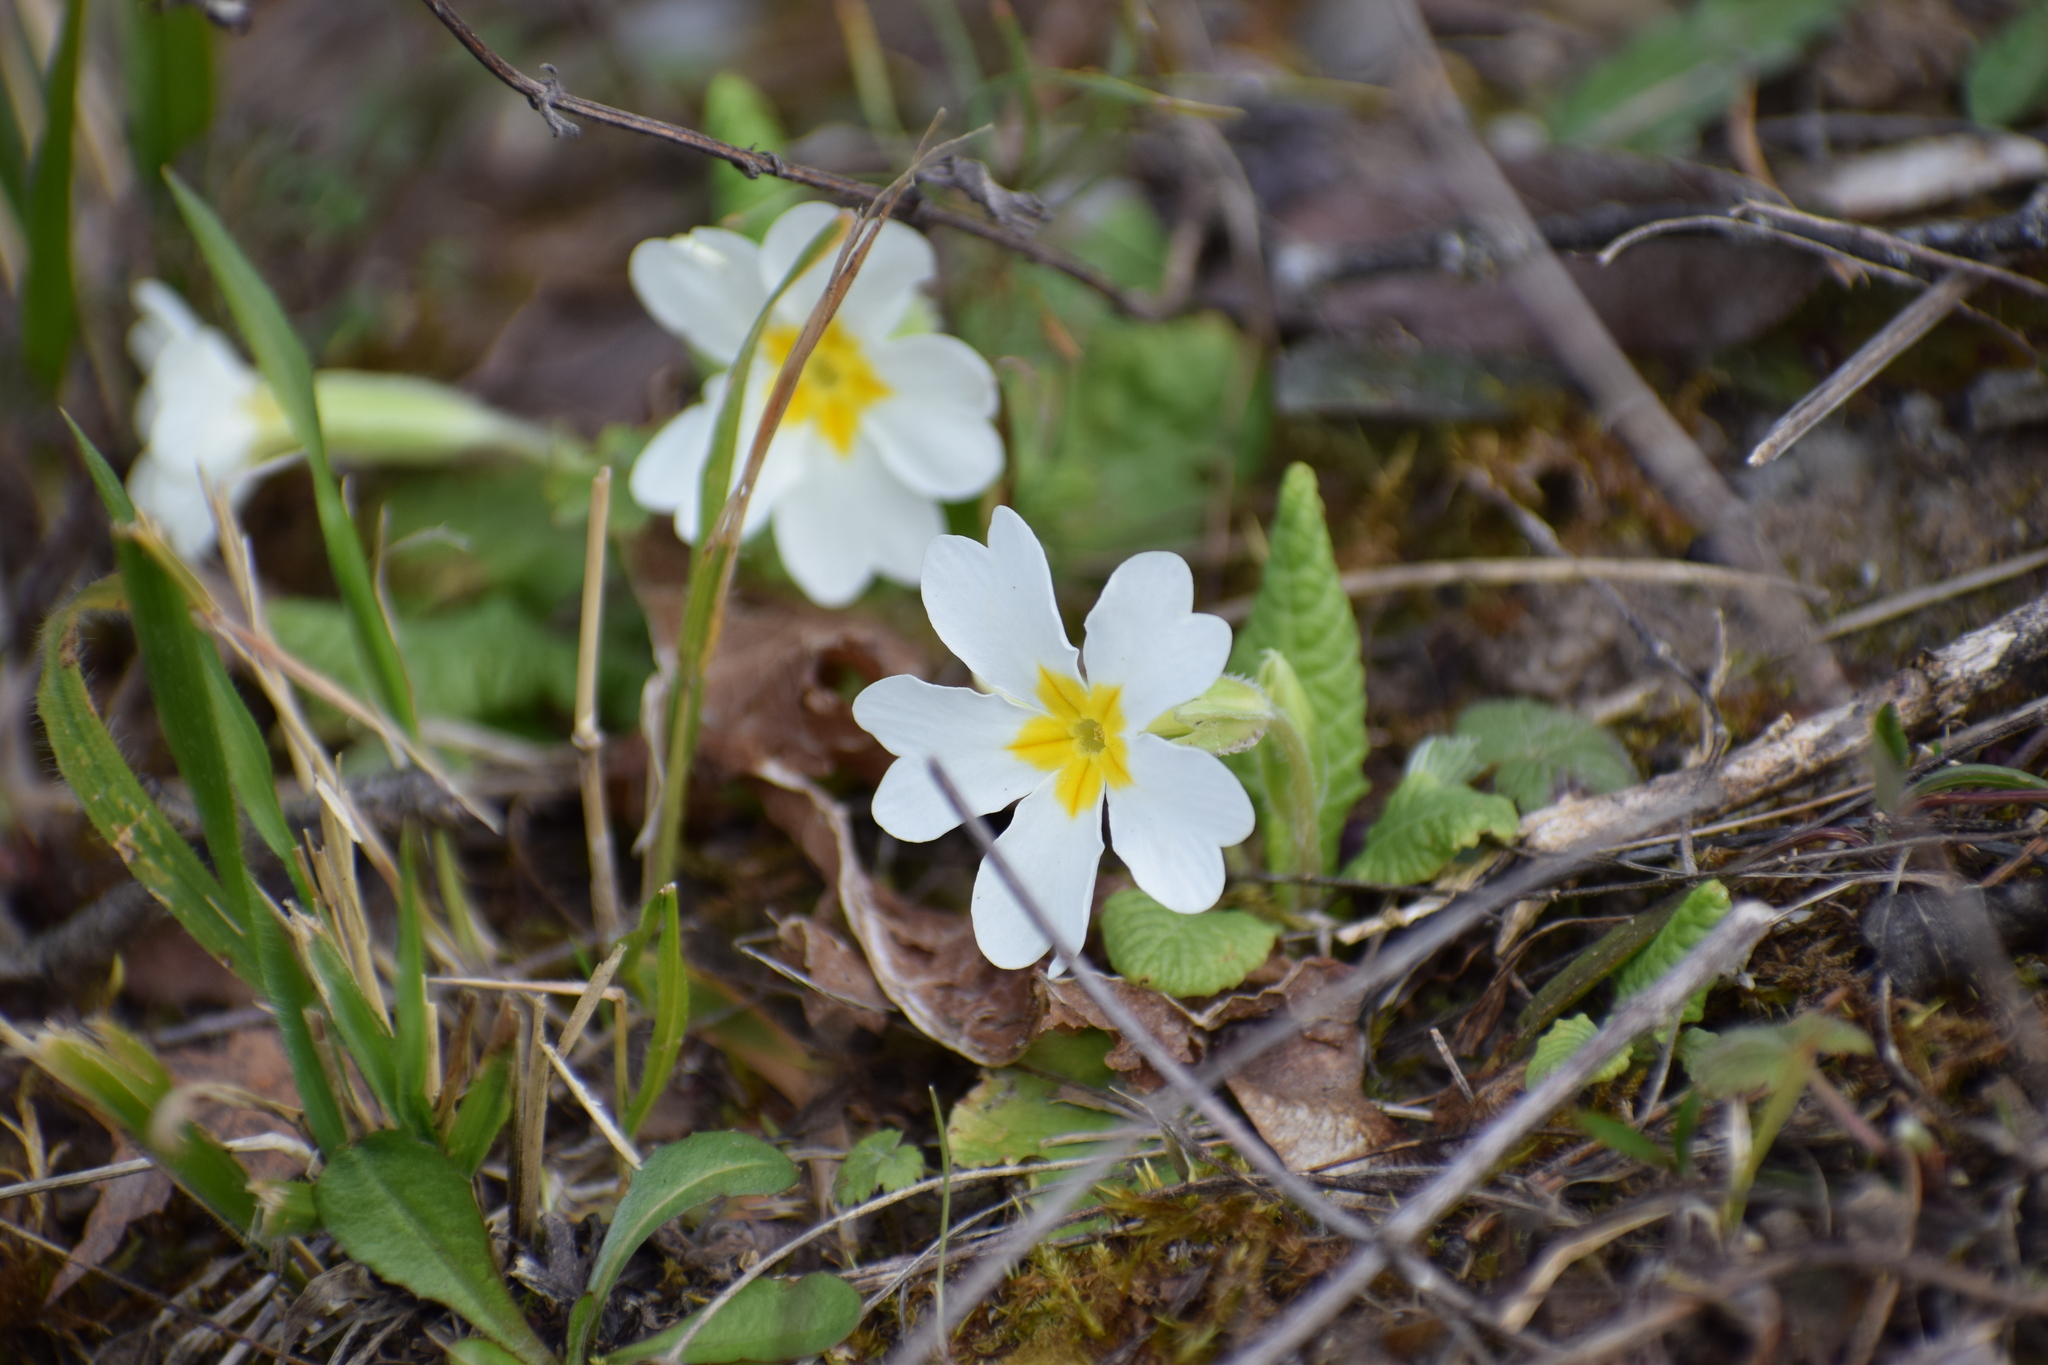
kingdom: Plantae
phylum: Tracheophyta
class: Magnoliopsida
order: Ericales
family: Primulaceae
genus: Primula
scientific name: Primula vulgaris
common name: Primrose
